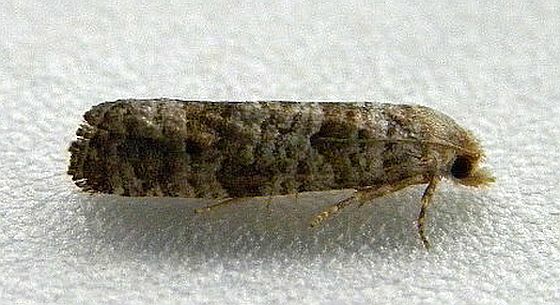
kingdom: Animalia
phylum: Arthropoda
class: Insecta
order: Lepidoptera
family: Tortricidae
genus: Retinia
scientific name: Retinia gemistrigulana
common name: Gray retinia moth
